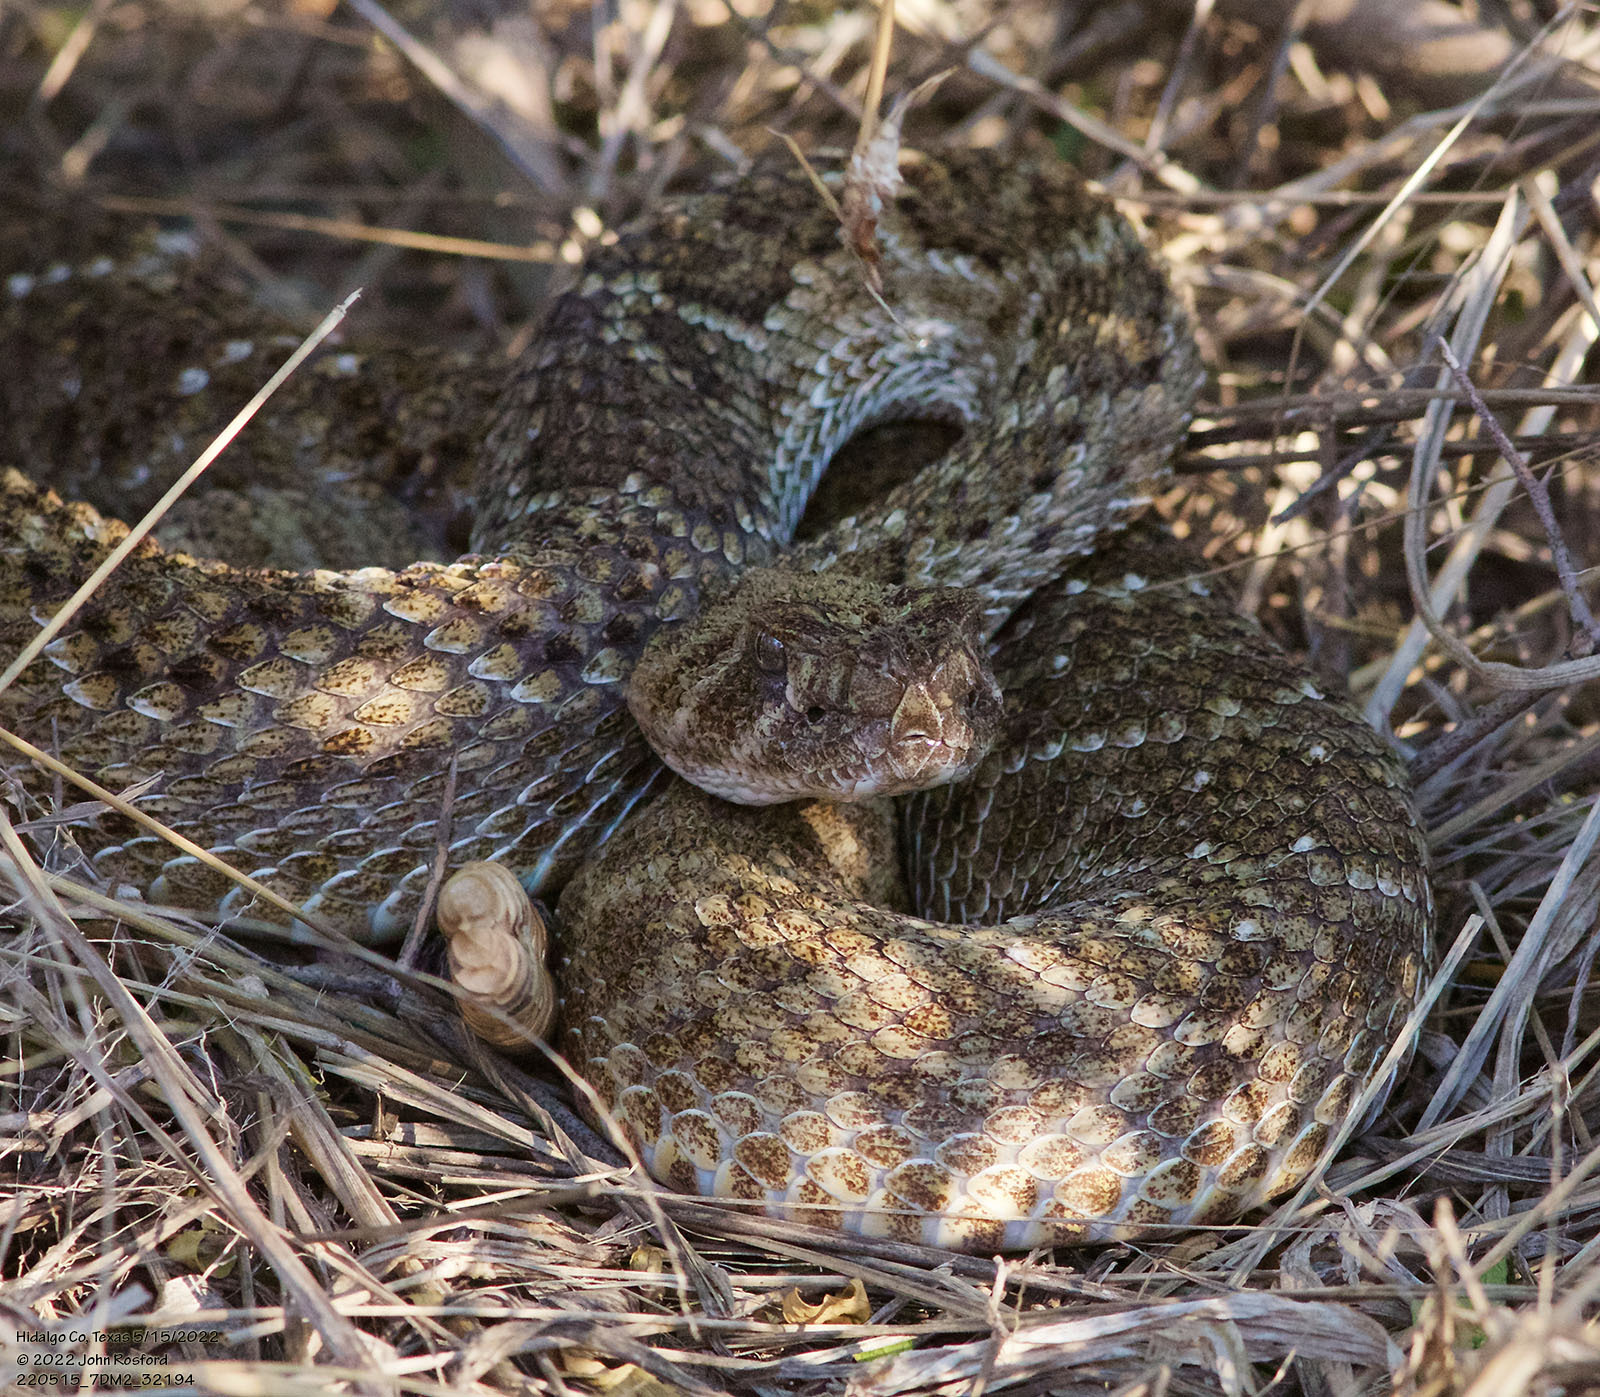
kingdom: Animalia
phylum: Chordata
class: Squamata
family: Viperidae
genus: Crotalus
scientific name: Crotalus atrox
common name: Western diamond-backed rattlesnake
